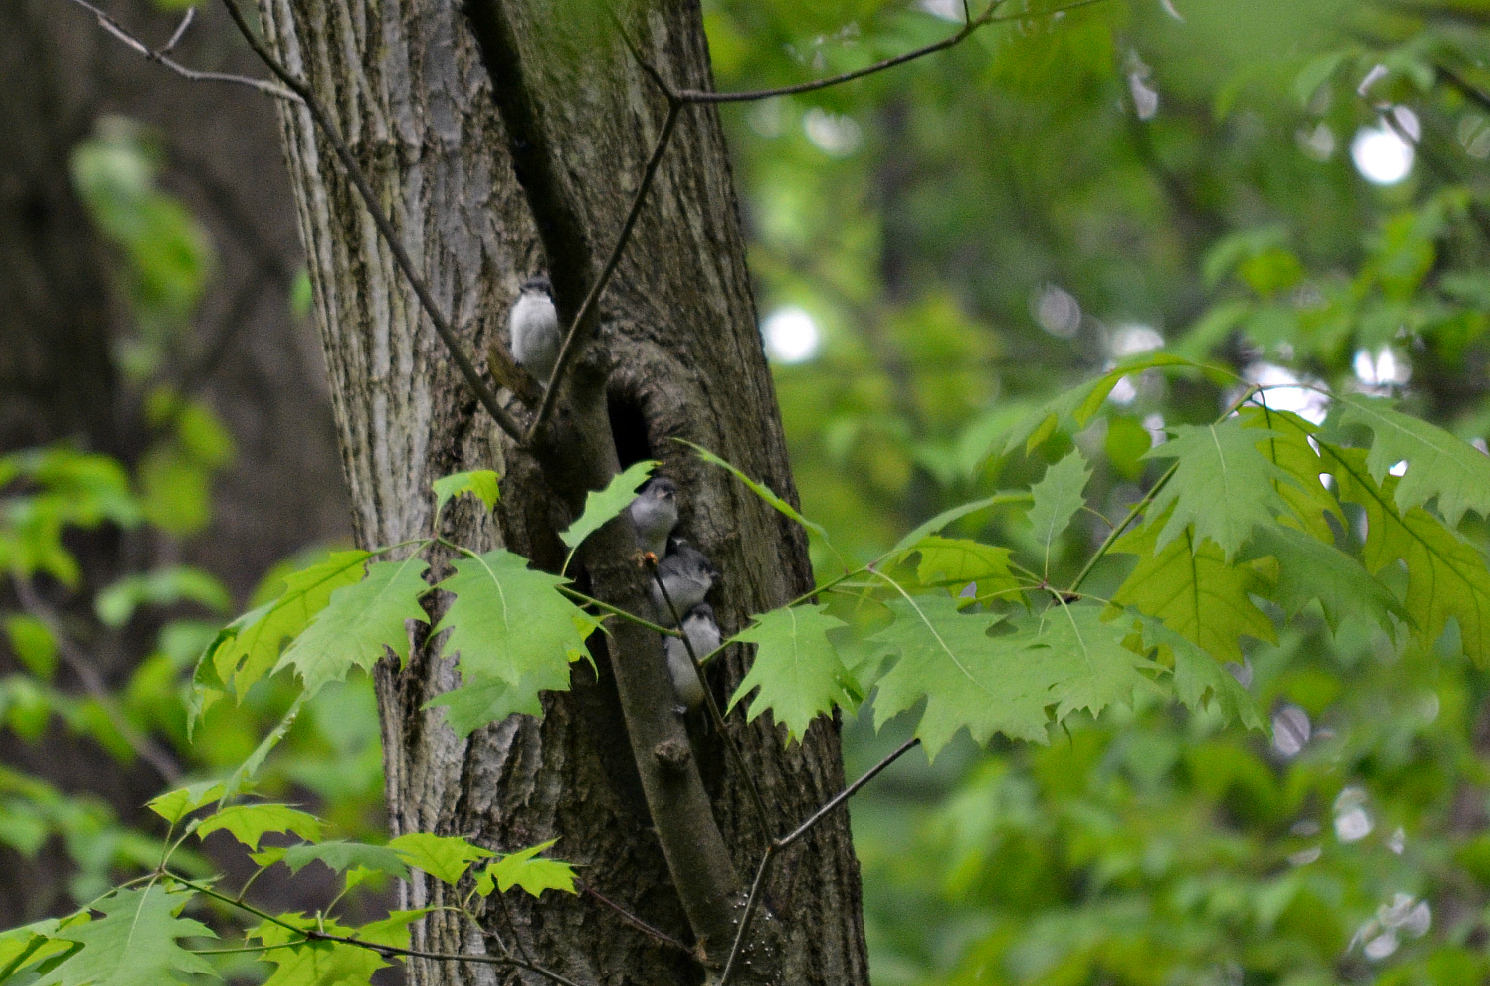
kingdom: Animalia
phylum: Chordata
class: Aves
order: Passeriformes
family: Paridae
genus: Baeolophus
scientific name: Baeolophus bicolor
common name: Tufted titmouse
